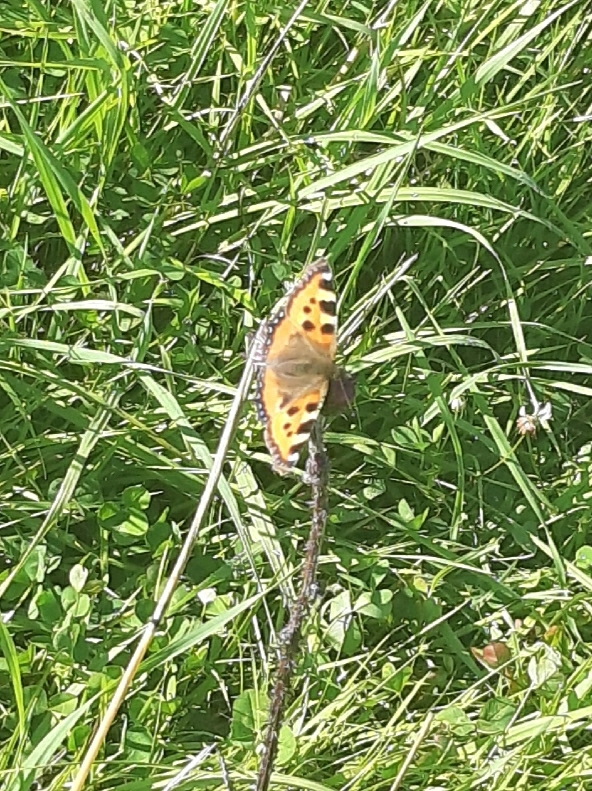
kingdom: Animalia
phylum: Arthropoda
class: Insecta
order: Lepidoptera
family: Nymphalidae
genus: Aglais
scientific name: Aglais urticae
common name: Small tortoiseshell
